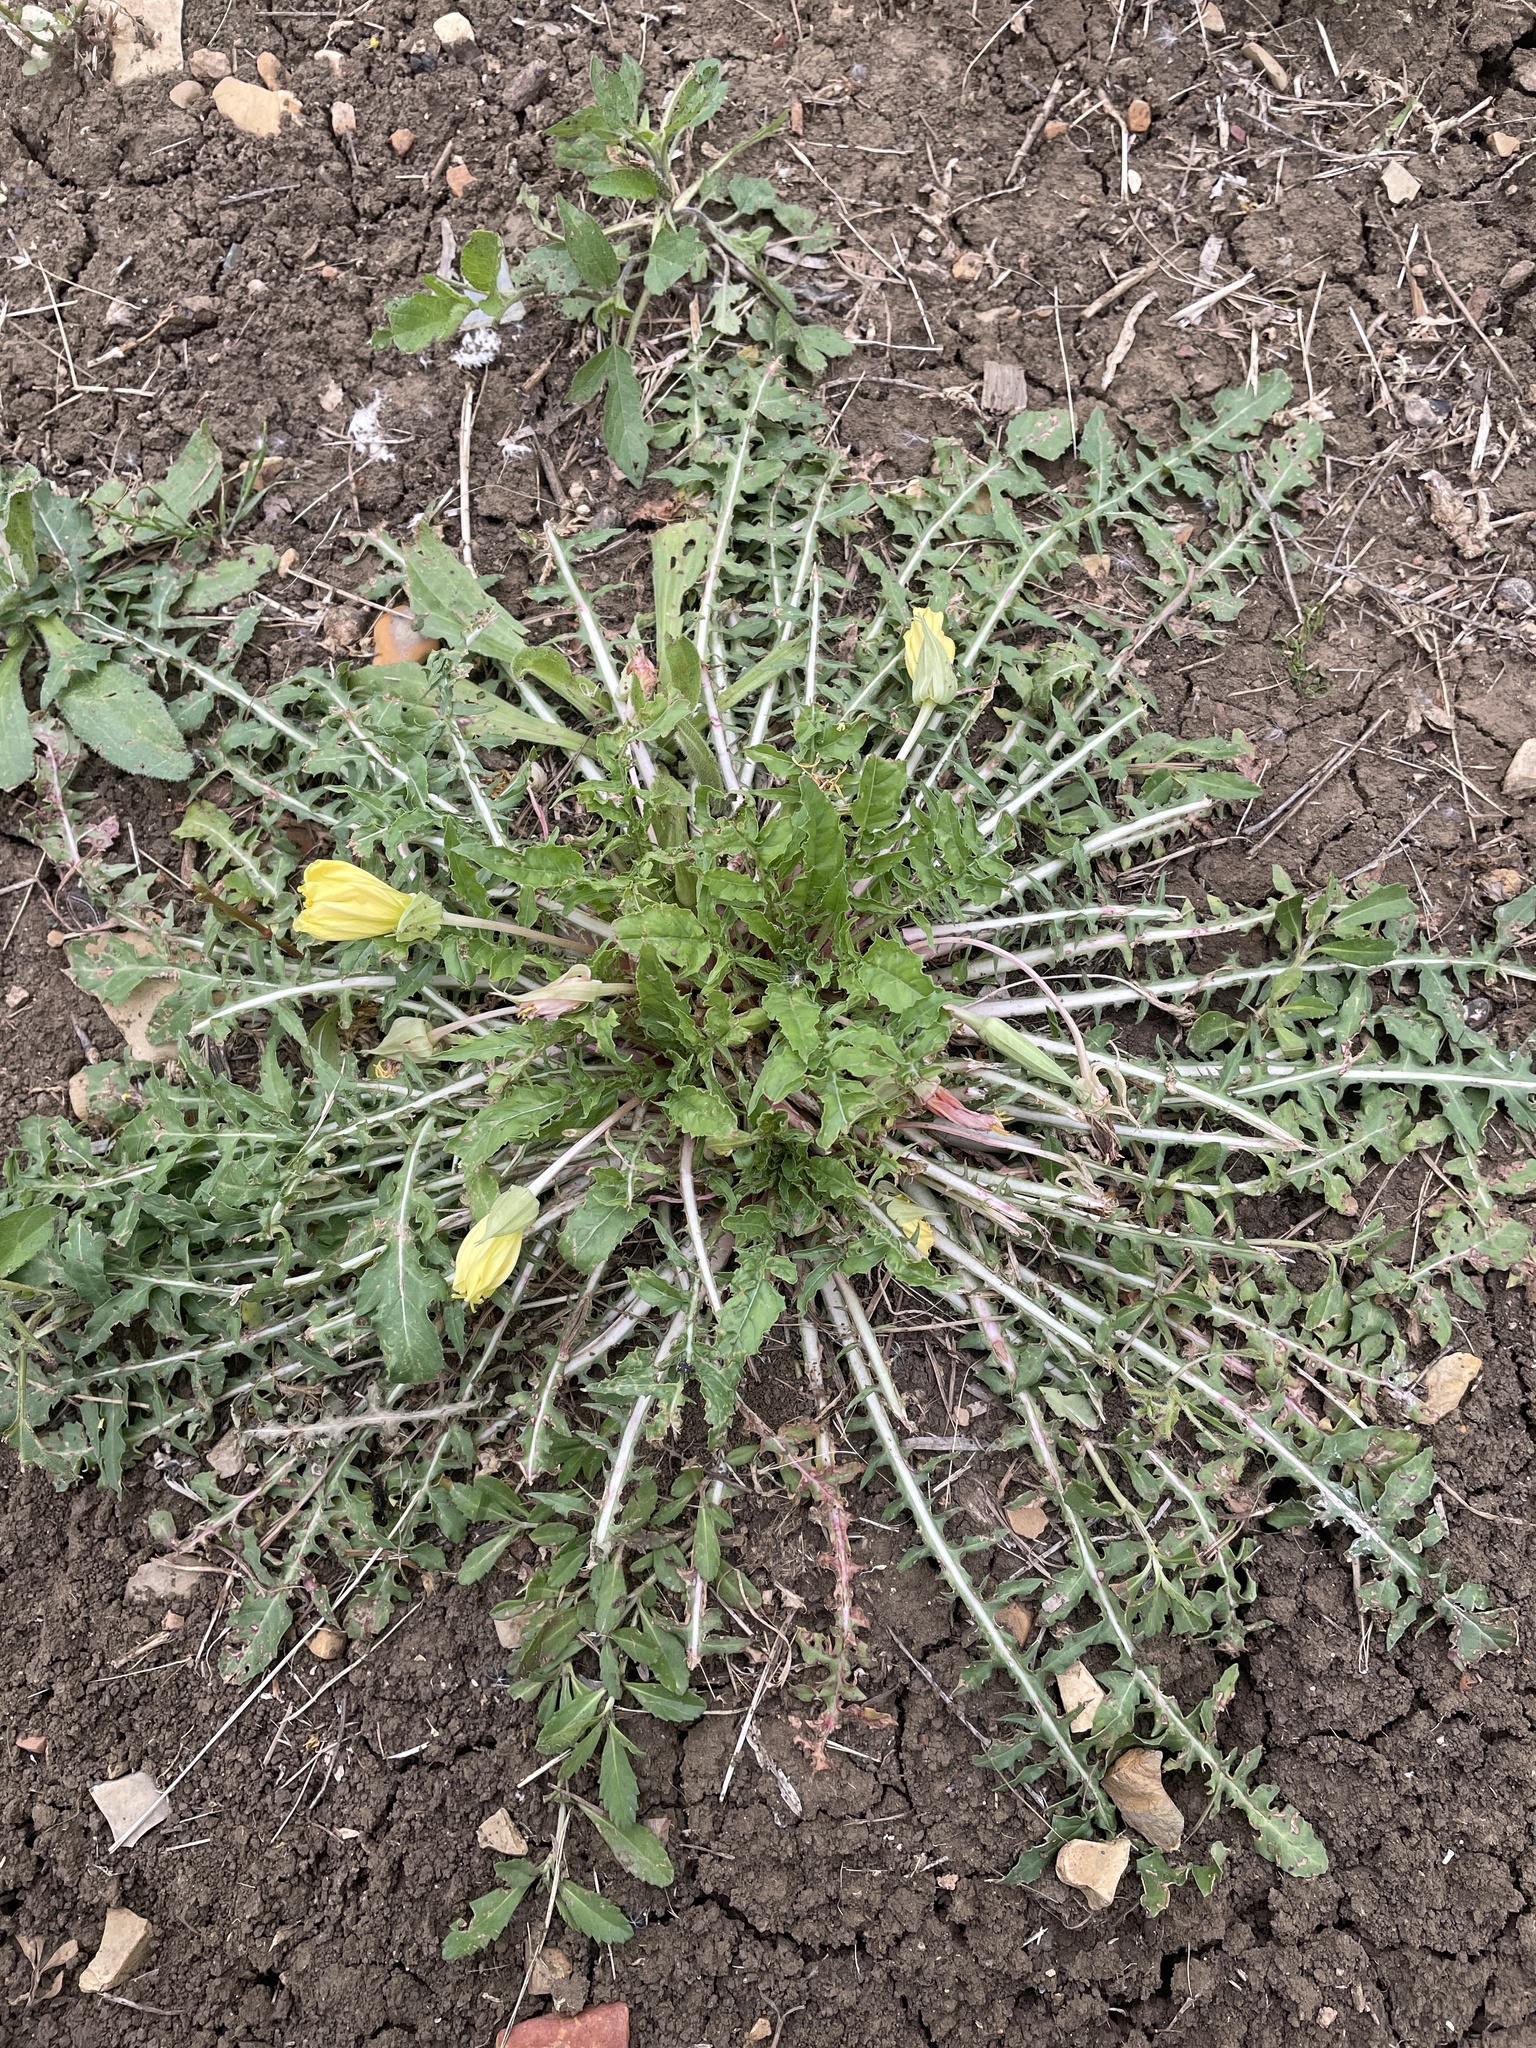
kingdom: Plantae
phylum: Tracheophyta
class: Magnoliopsida
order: Myrtales
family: Onagraceae
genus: Oenothera
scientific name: Oenothera triloba
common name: Sessile evening-primrose
